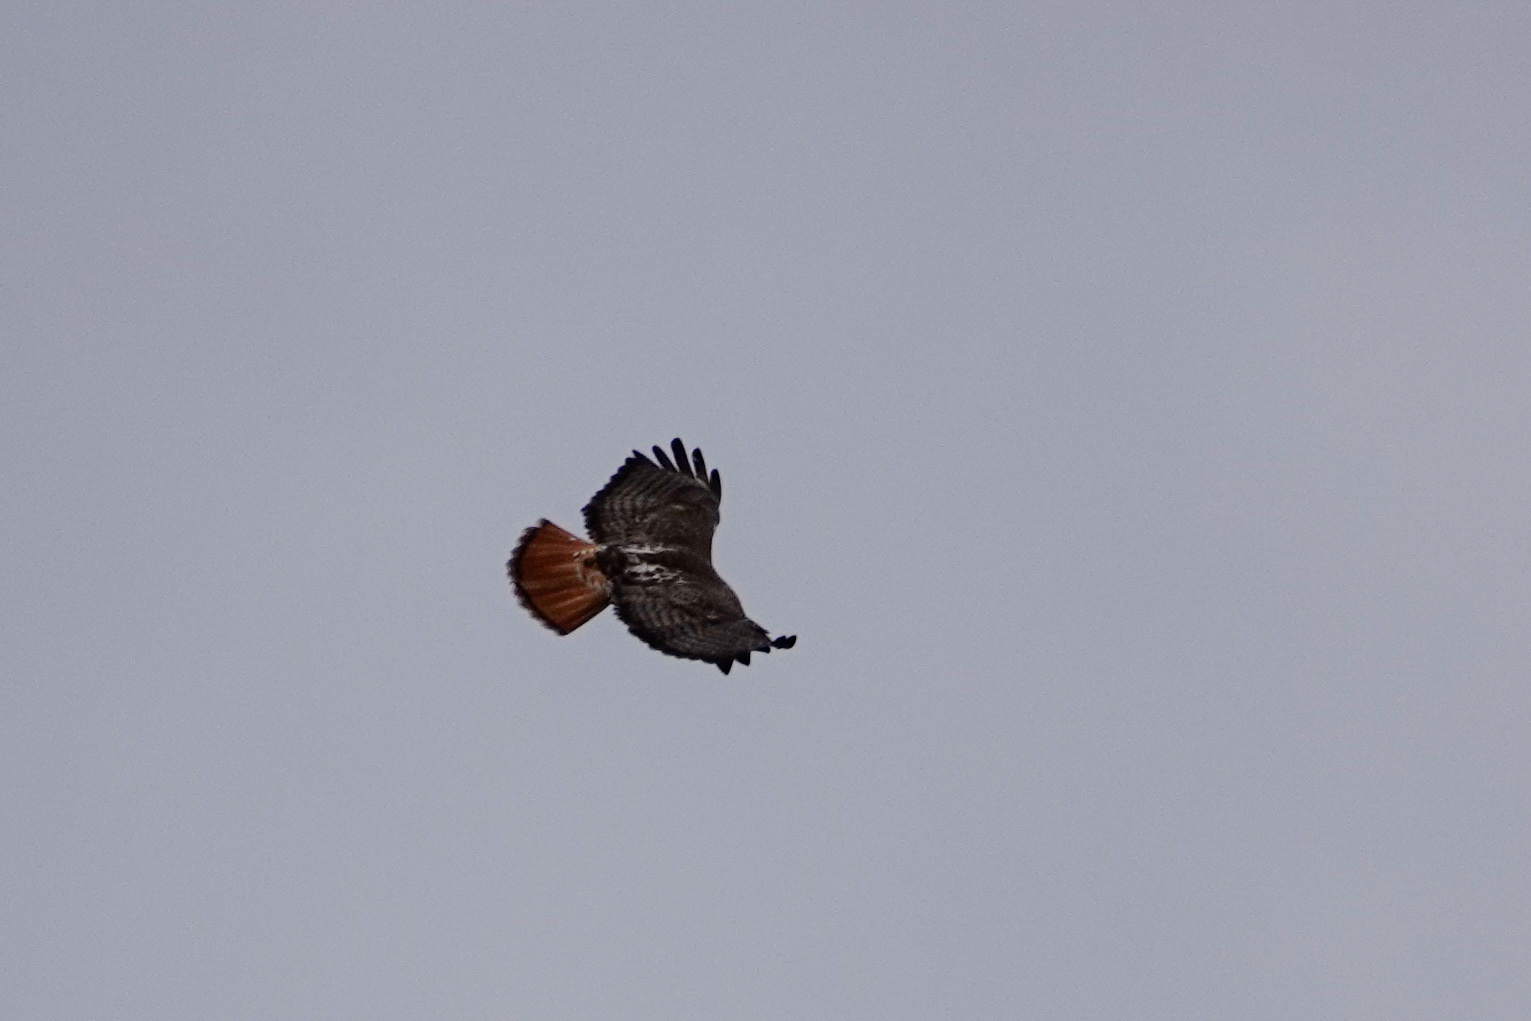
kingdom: Animalia
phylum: Chordata
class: Aves
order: Accipitriformes
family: Accipitridae
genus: Buteo
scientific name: Buteo jamaicensis
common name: Red-tailed hawk
